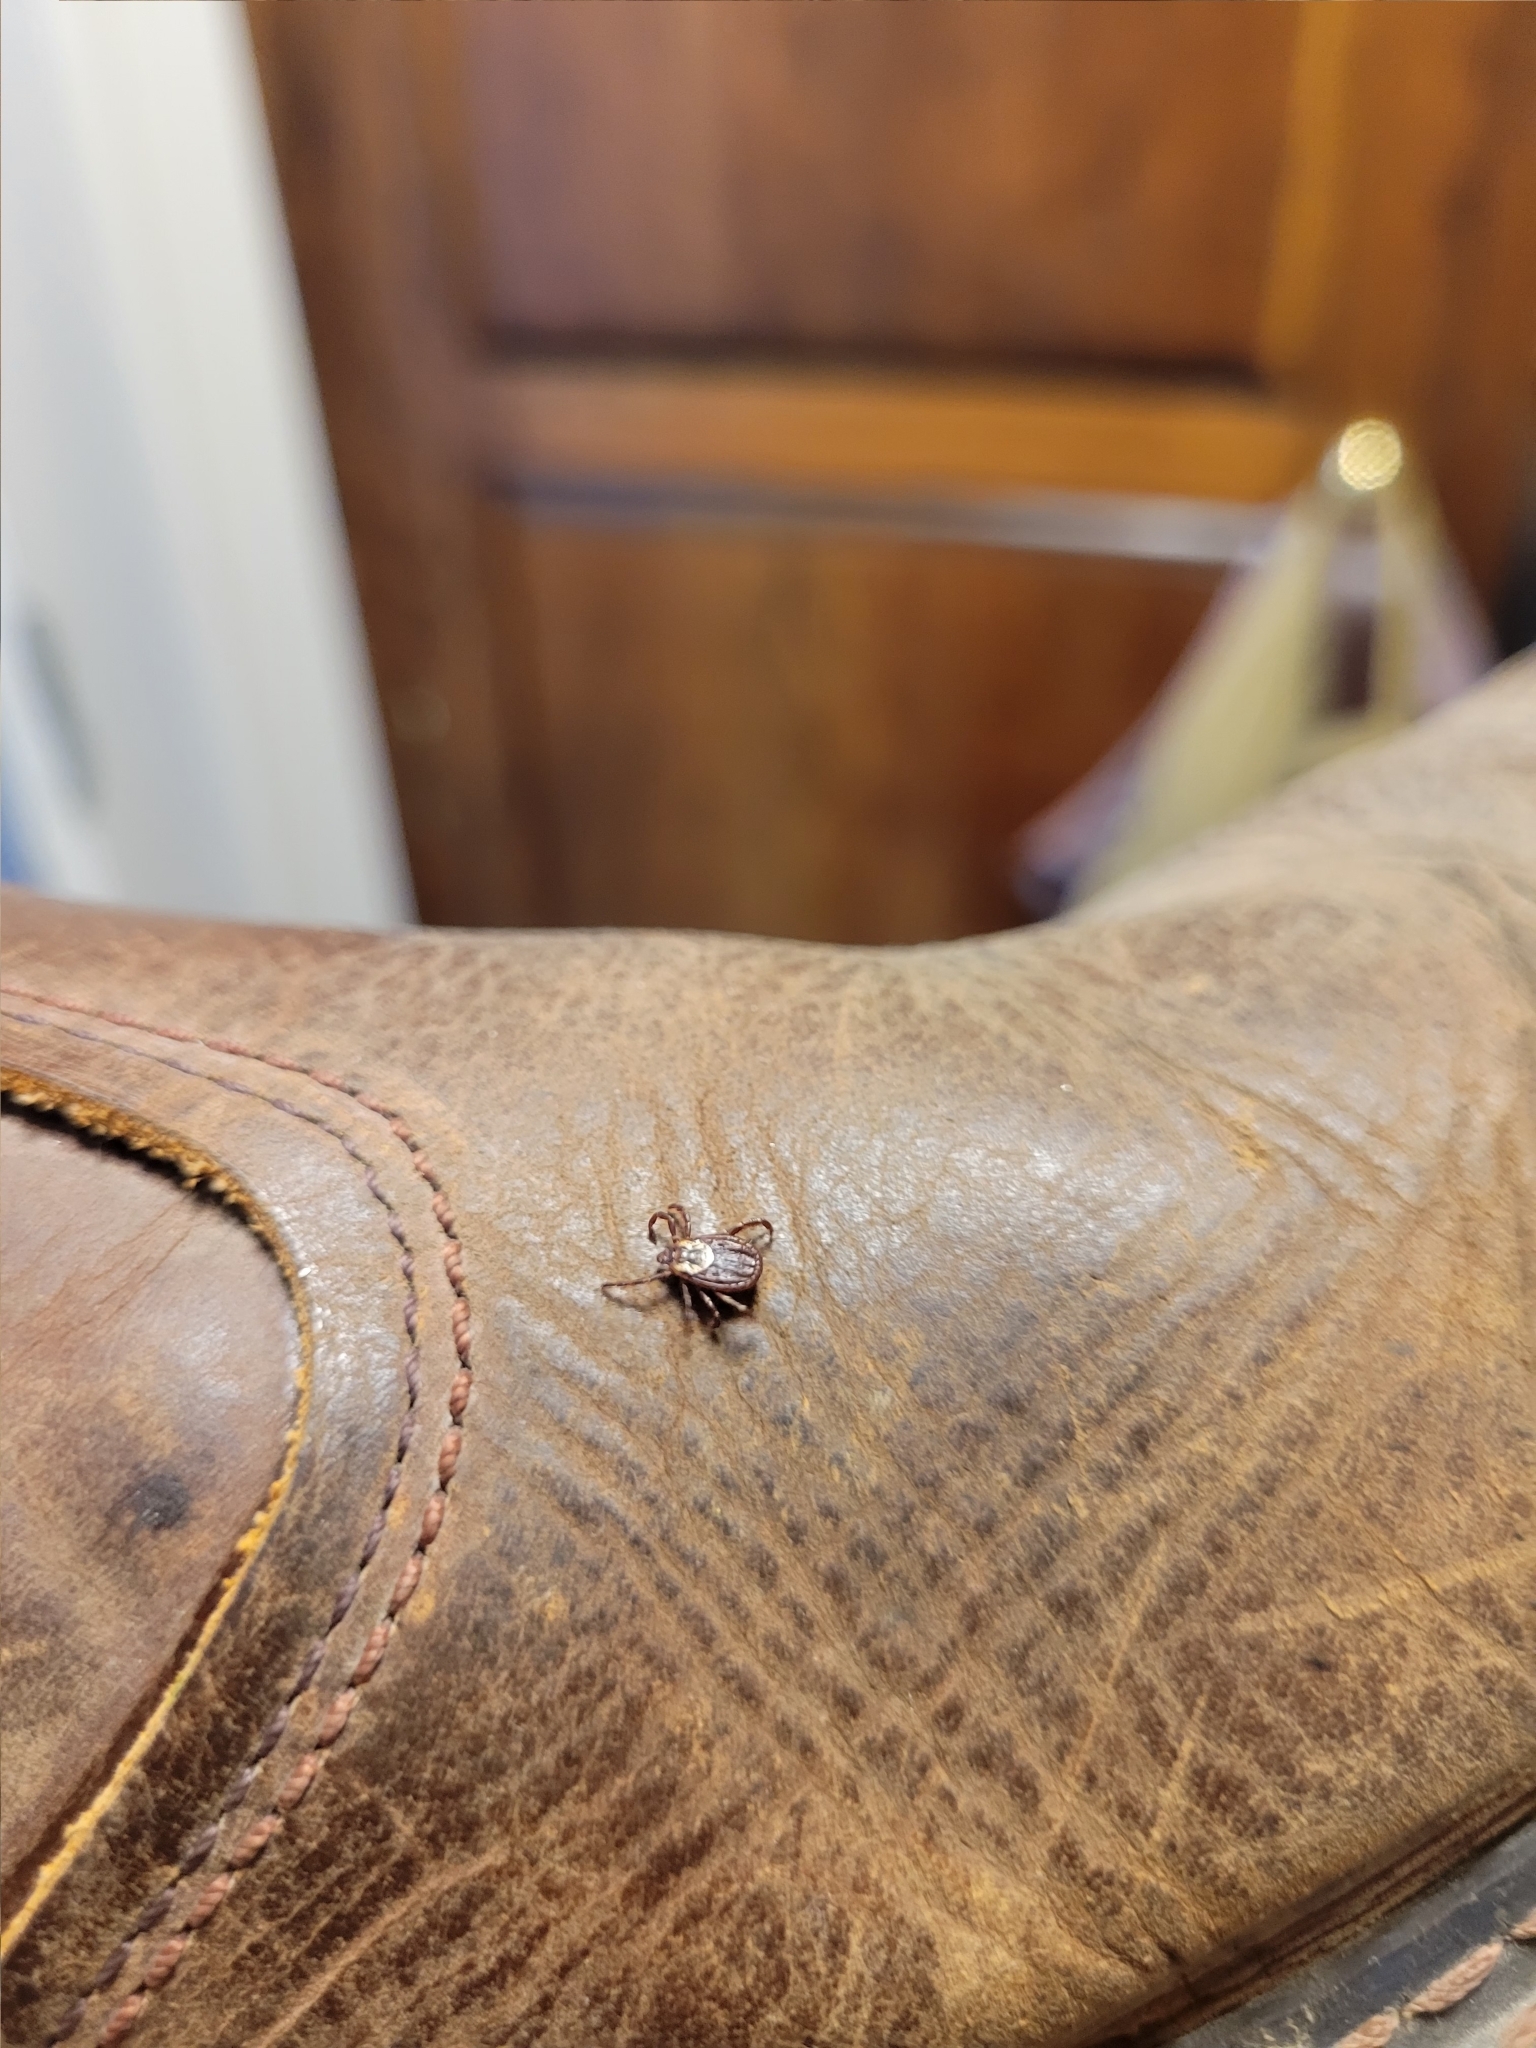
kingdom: Animalia
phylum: Arthropoda
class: Arachnida
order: Ixodida
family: Ixodidae
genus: Dermacentor
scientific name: Dermacentor variabilis
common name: American dog tick
